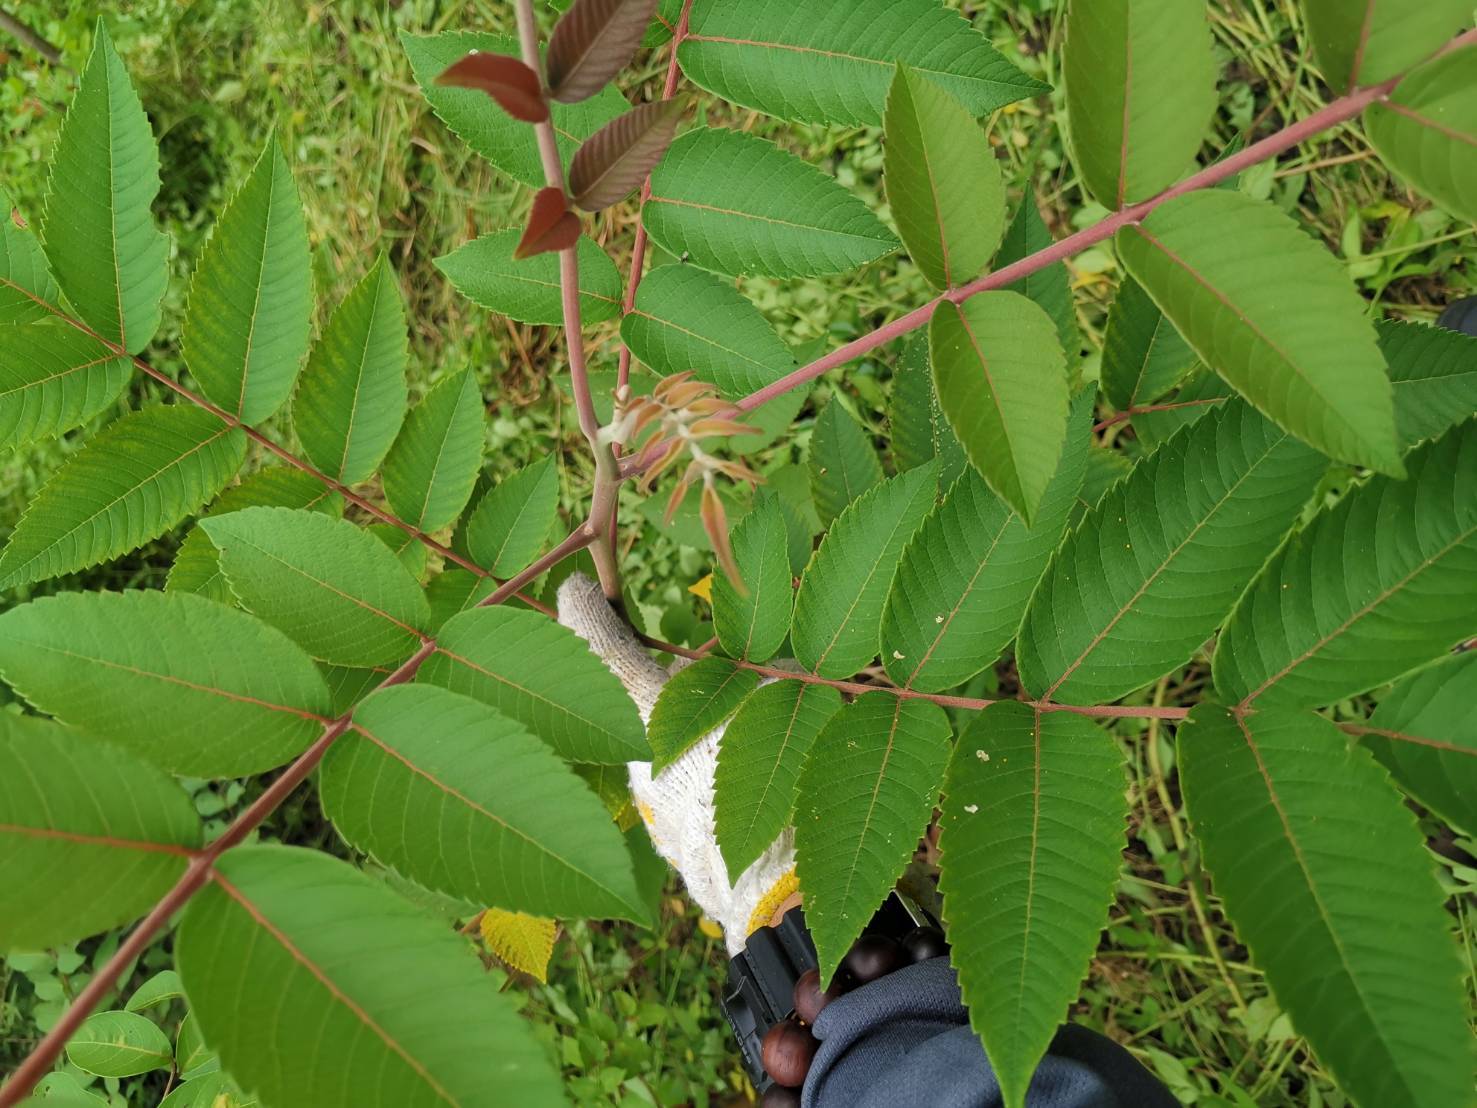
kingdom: Plantae
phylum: Tracheophyta
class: Magnoliopsida
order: Sapindales
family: Anacardiaceae
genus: Rhus
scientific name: Rhus chinensis
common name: Chinese gall
